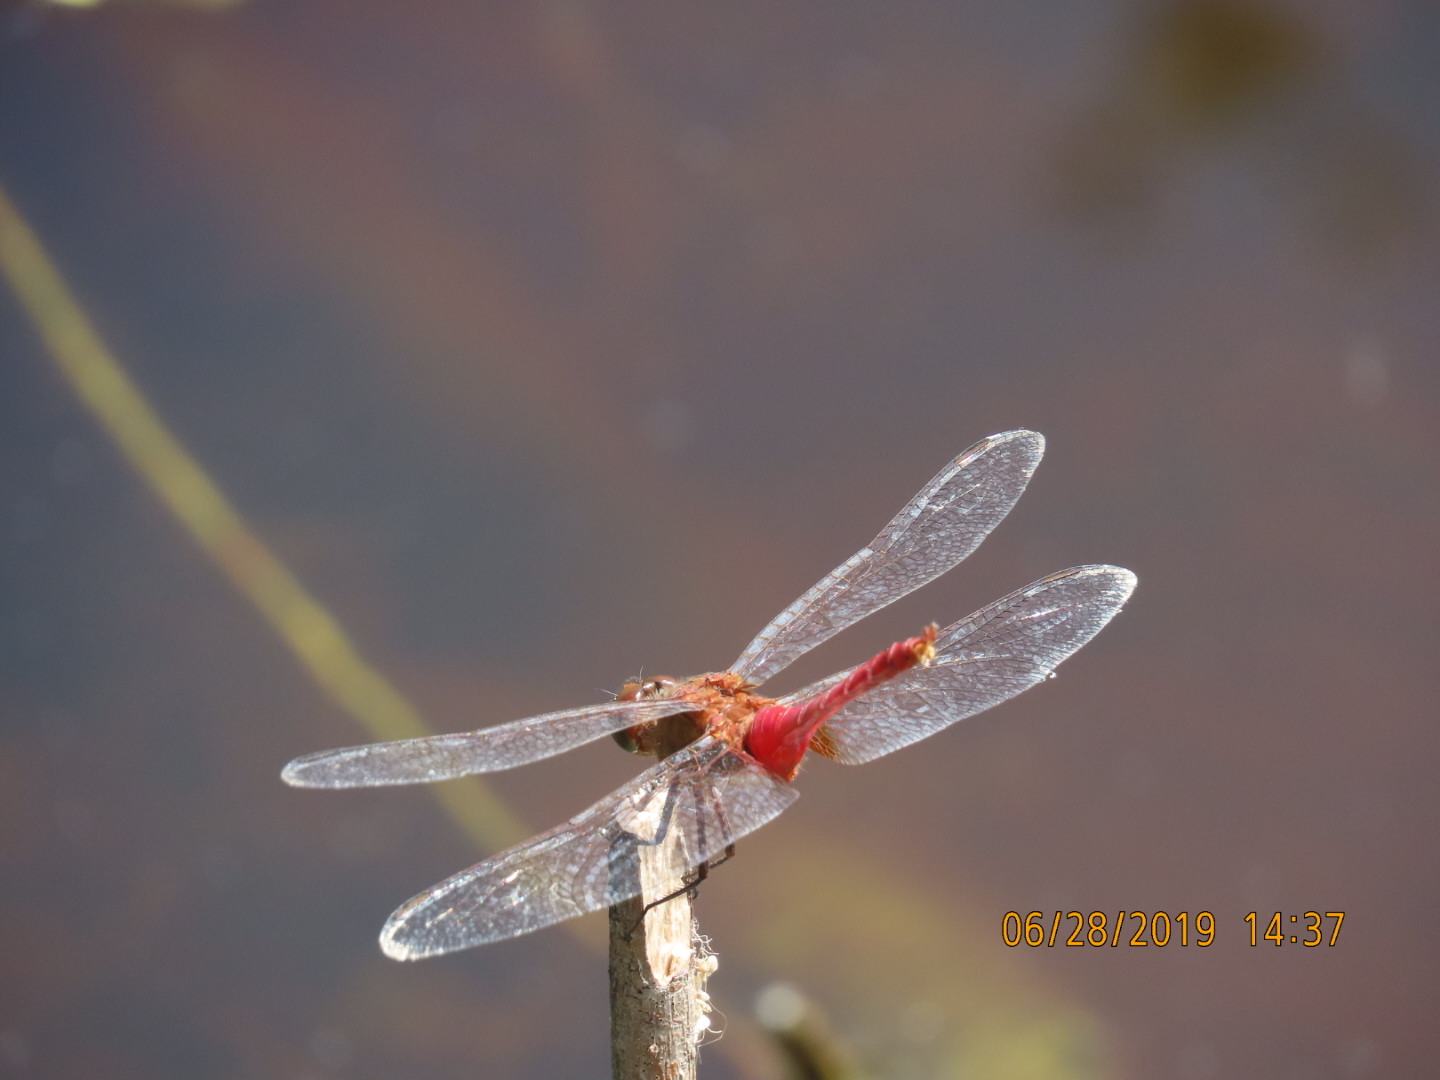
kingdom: Animalia
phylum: Arthropoda
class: Insecta
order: Odonata
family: Libellulidae
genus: Brachymesia
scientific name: Brachymesia furcata
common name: Red-taled pennant
